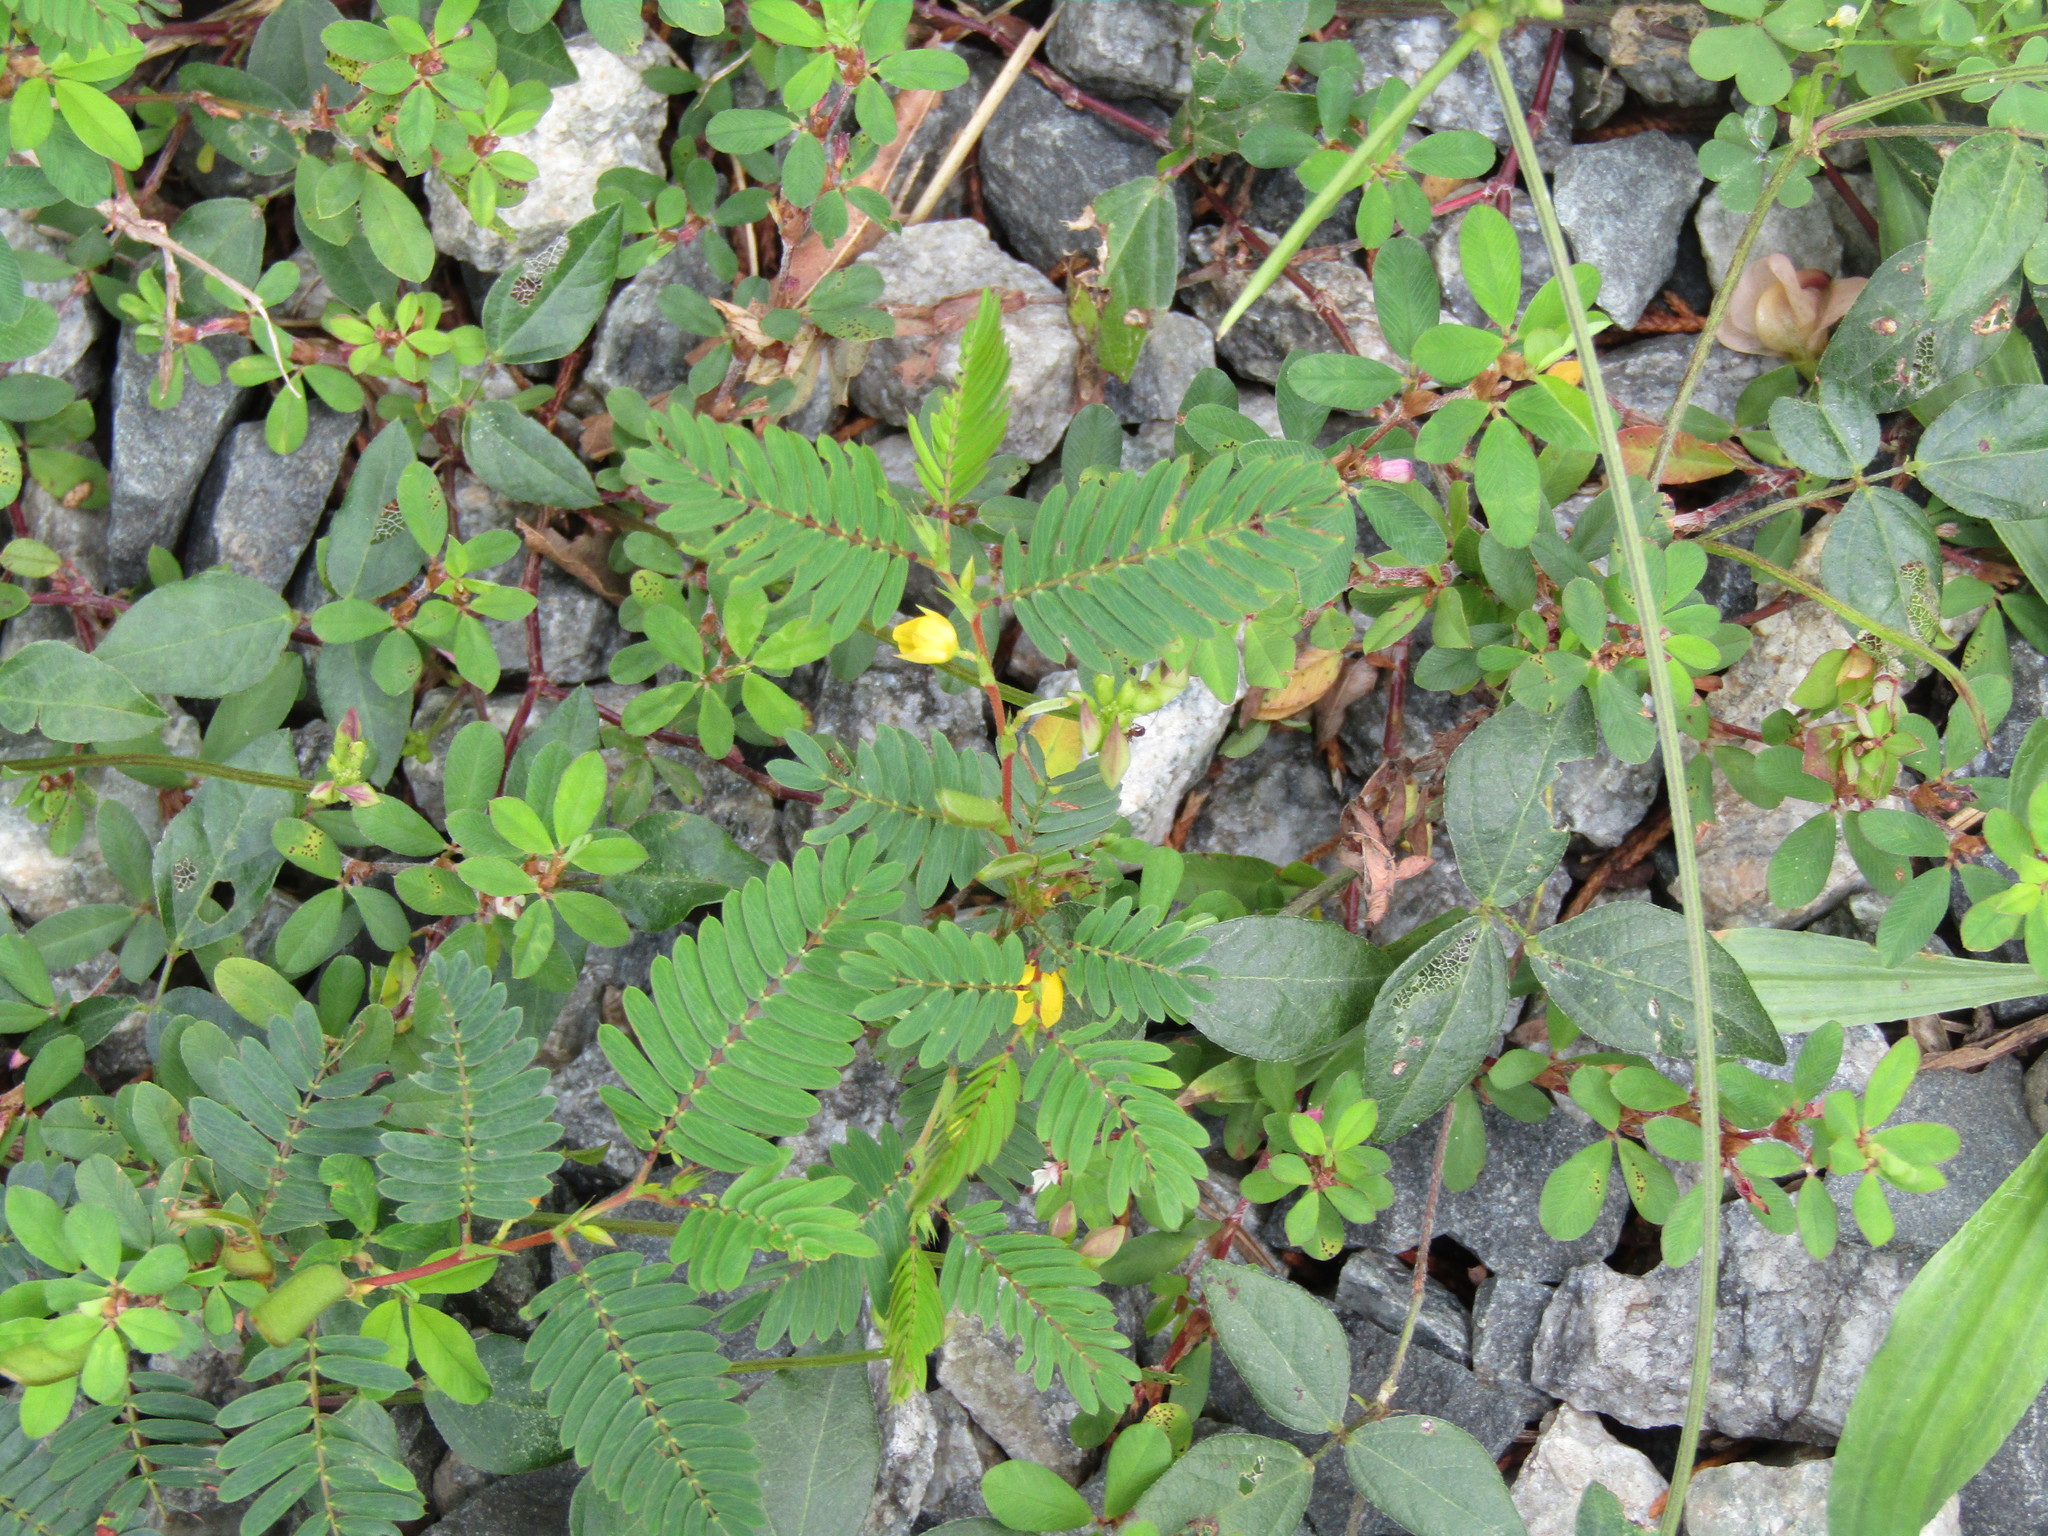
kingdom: Plantae
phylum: Tracheophyta
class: Magnoliopsida
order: Fabales
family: Fabaceae
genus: Chamaecrista
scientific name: Chamaecrista nictitans
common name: Sensitive cassia
